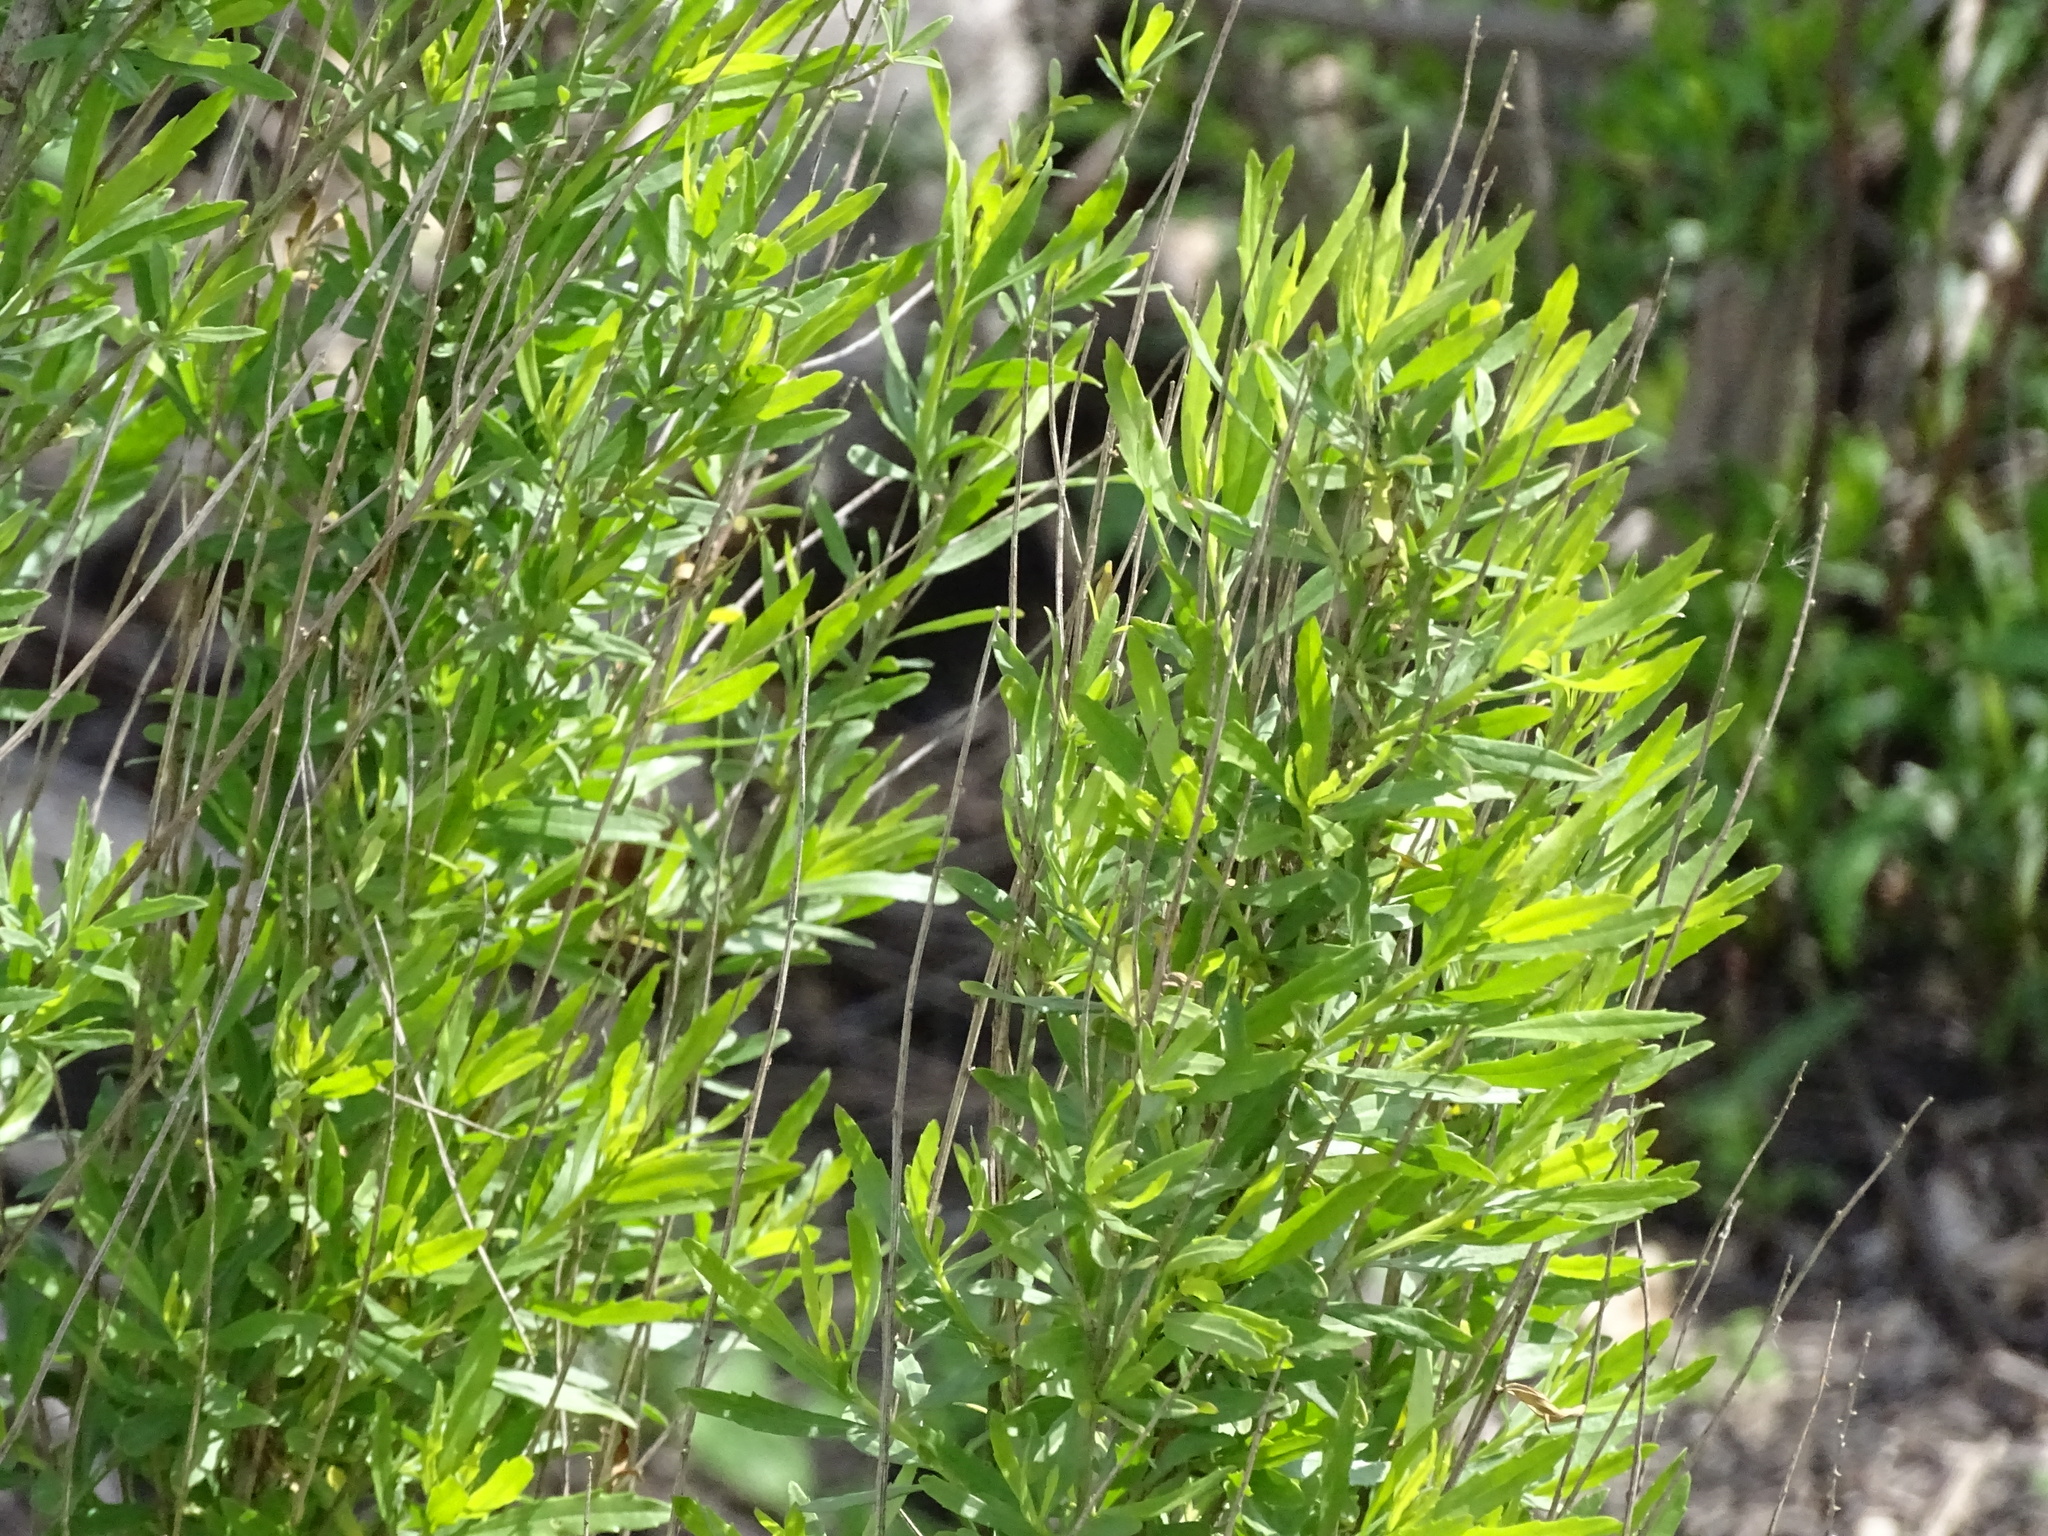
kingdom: Plantae
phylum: Tracheophyta
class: Magnoliopsida
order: Asterales
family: Asteraceae
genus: Baccharis
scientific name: Baccharis neglecta
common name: Roosevelt-weed
